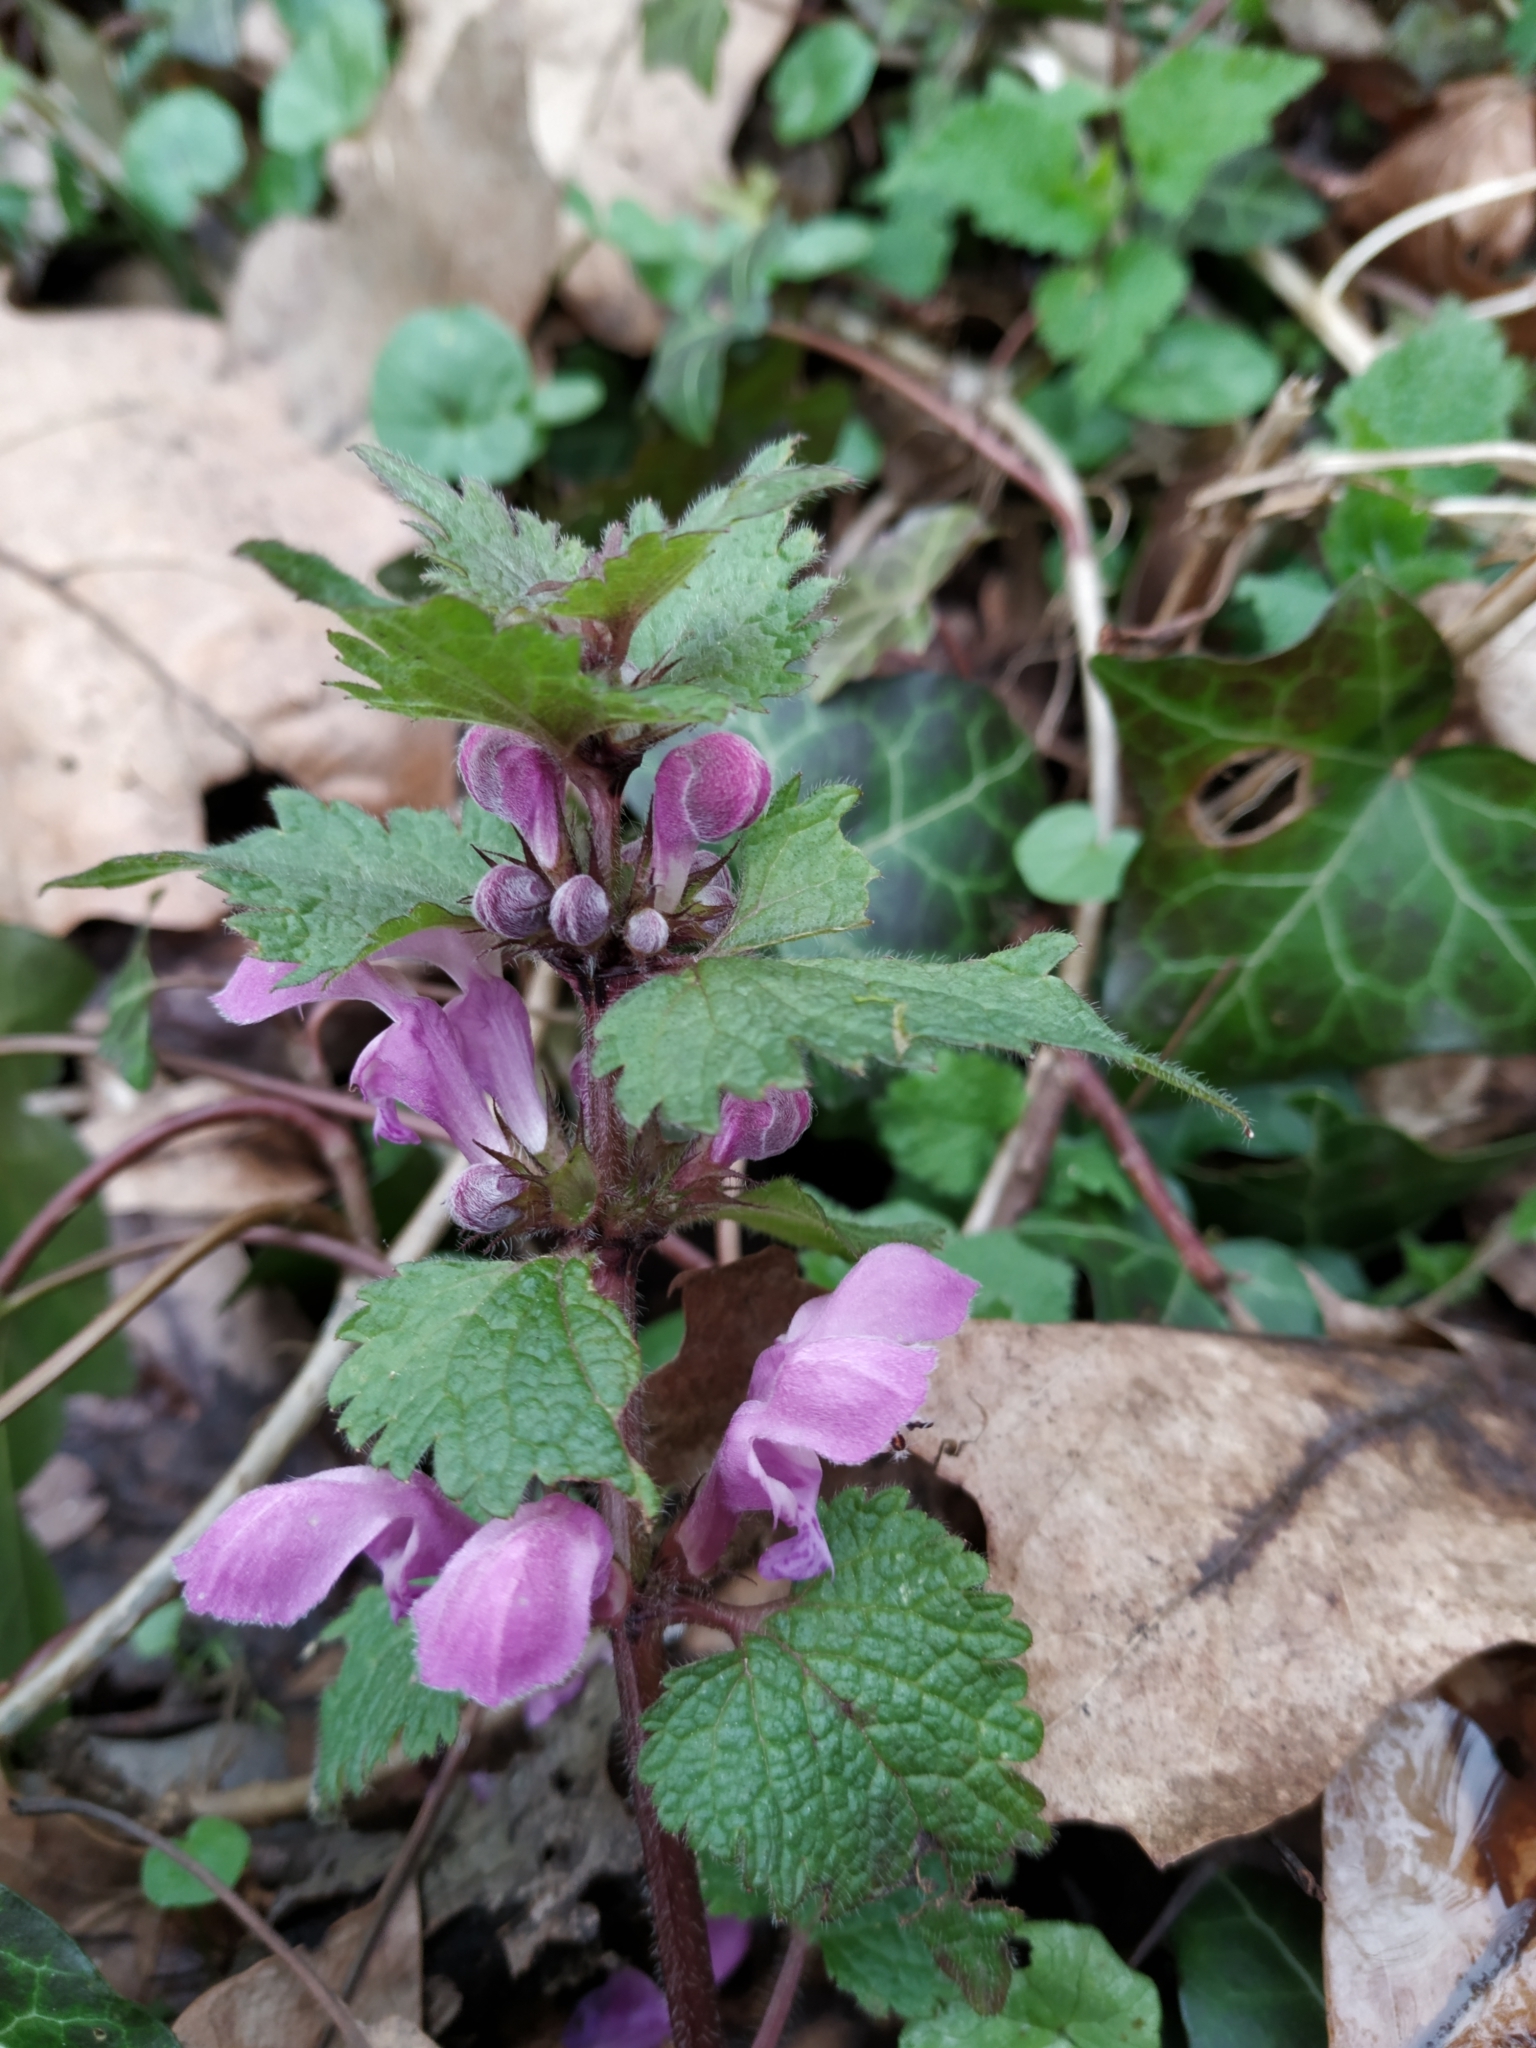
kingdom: Plantae
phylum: Tracheophyta
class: Magnoliopsida
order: Lamiales
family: Lamiaceae
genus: Lamium
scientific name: Lamium maculatum
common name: Spotted dead-nettle
